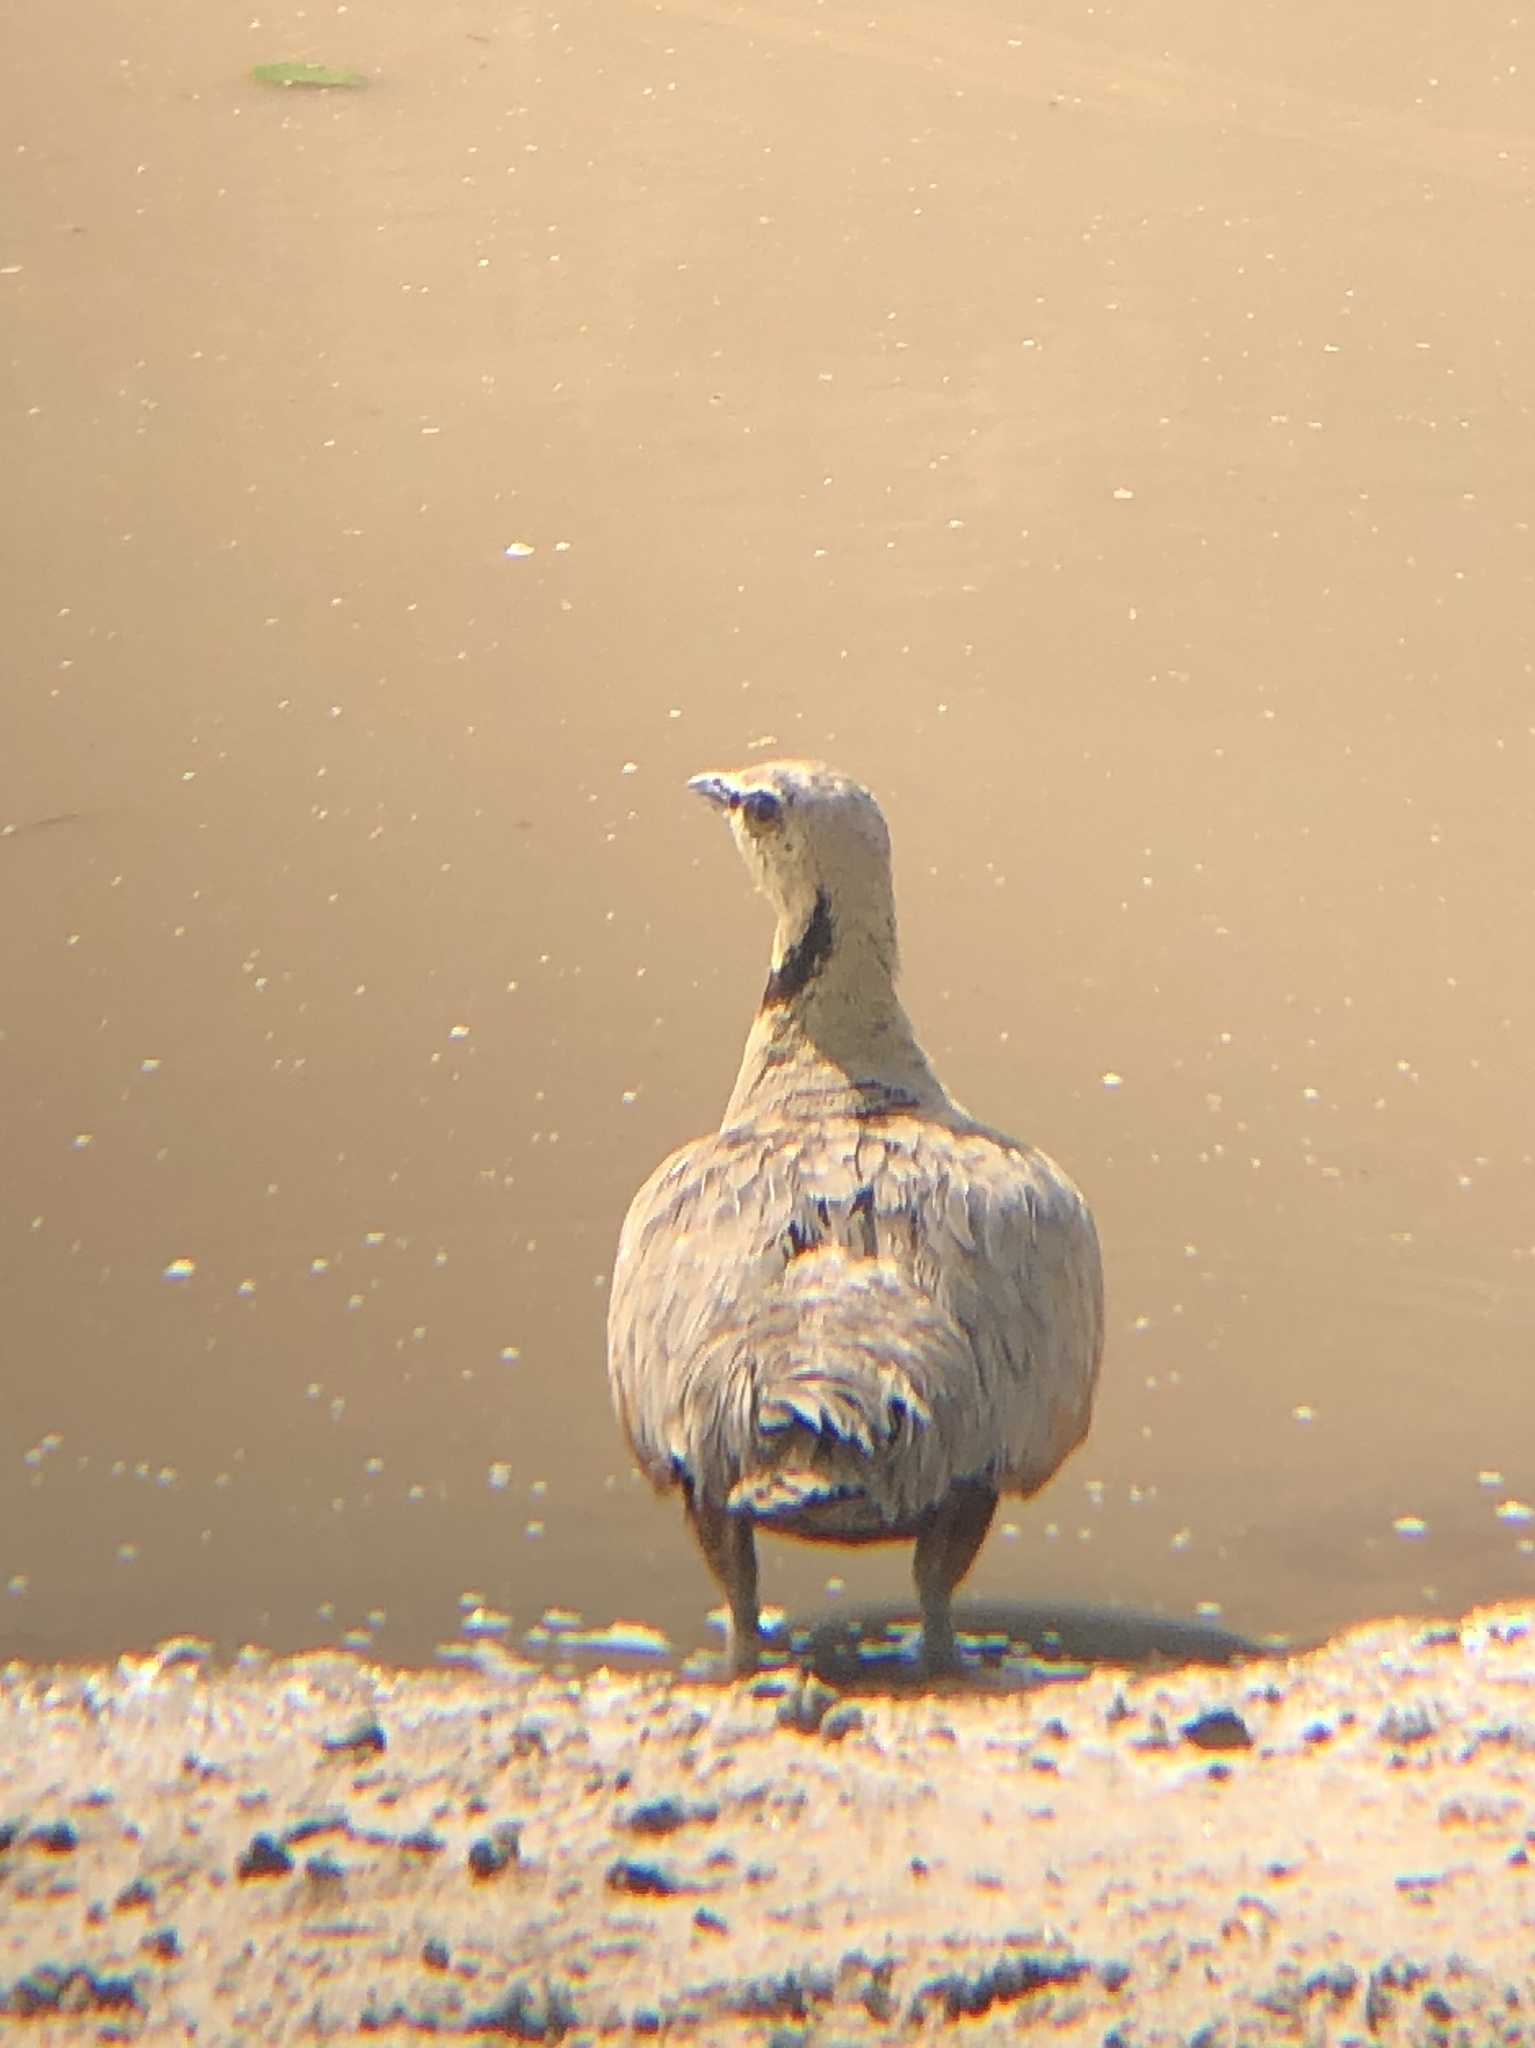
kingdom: Animalia
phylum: Chordata
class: Aves
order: Pteroclidiformes
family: Pteroclididae
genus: Pterocles
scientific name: Pterocles gutturalis
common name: Yellow-throated sandgrouse
